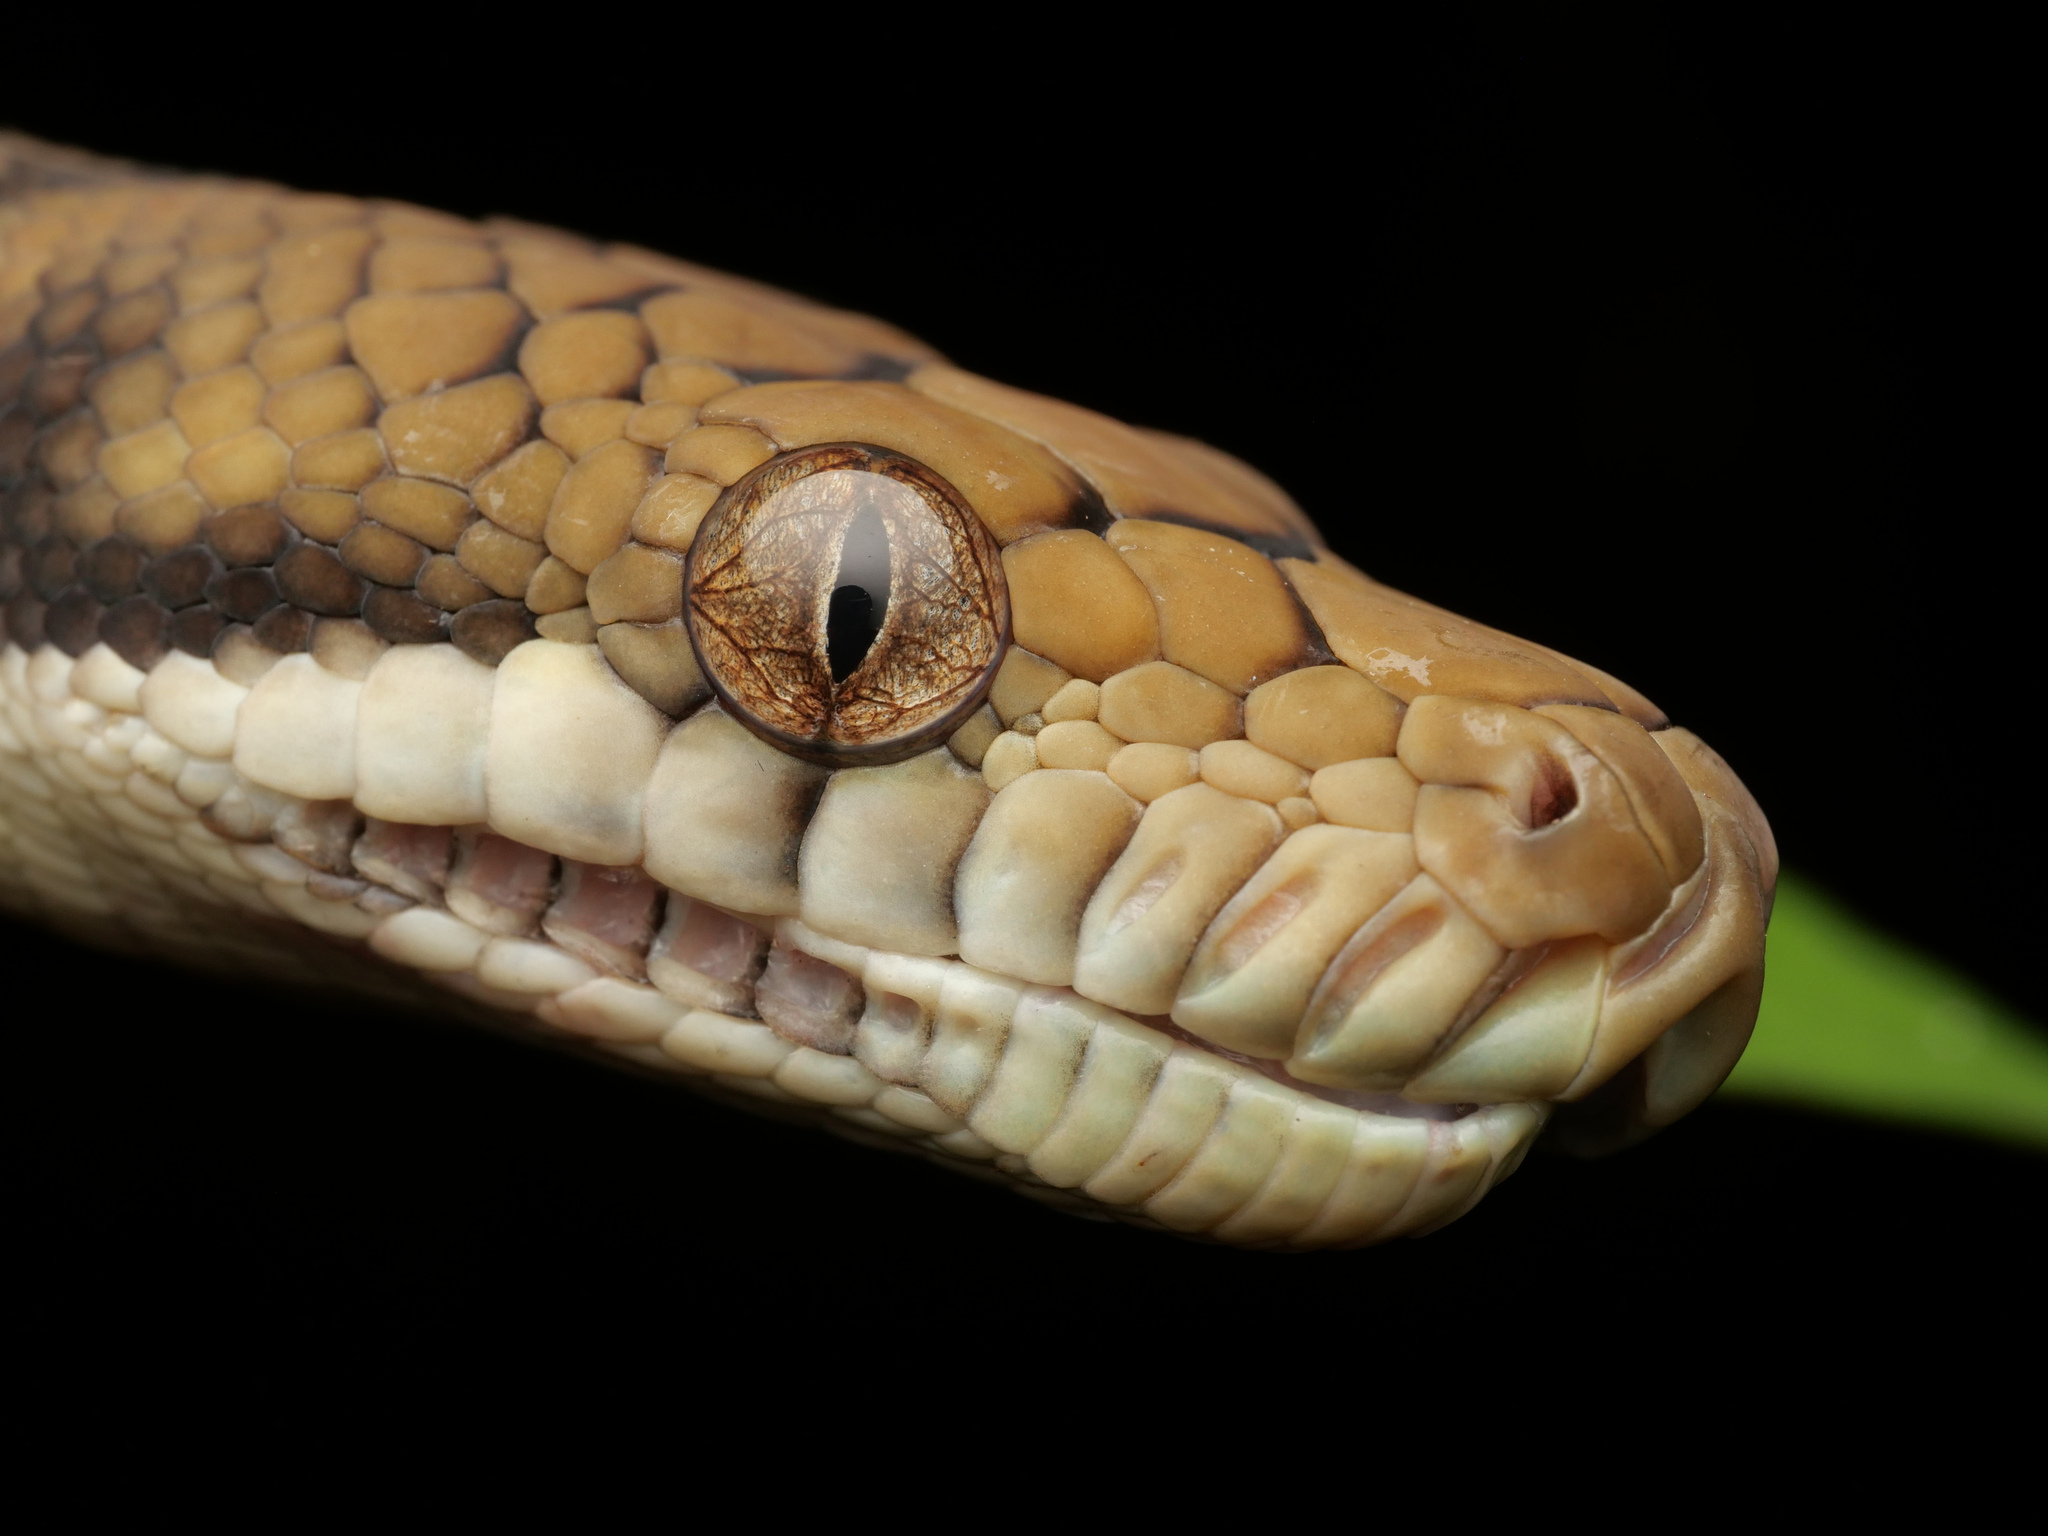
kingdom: Animalia
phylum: Chordata
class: Squamata
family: Pythonidae
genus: Simalia
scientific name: Simalia amethistina
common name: Amethystine or scrub python
